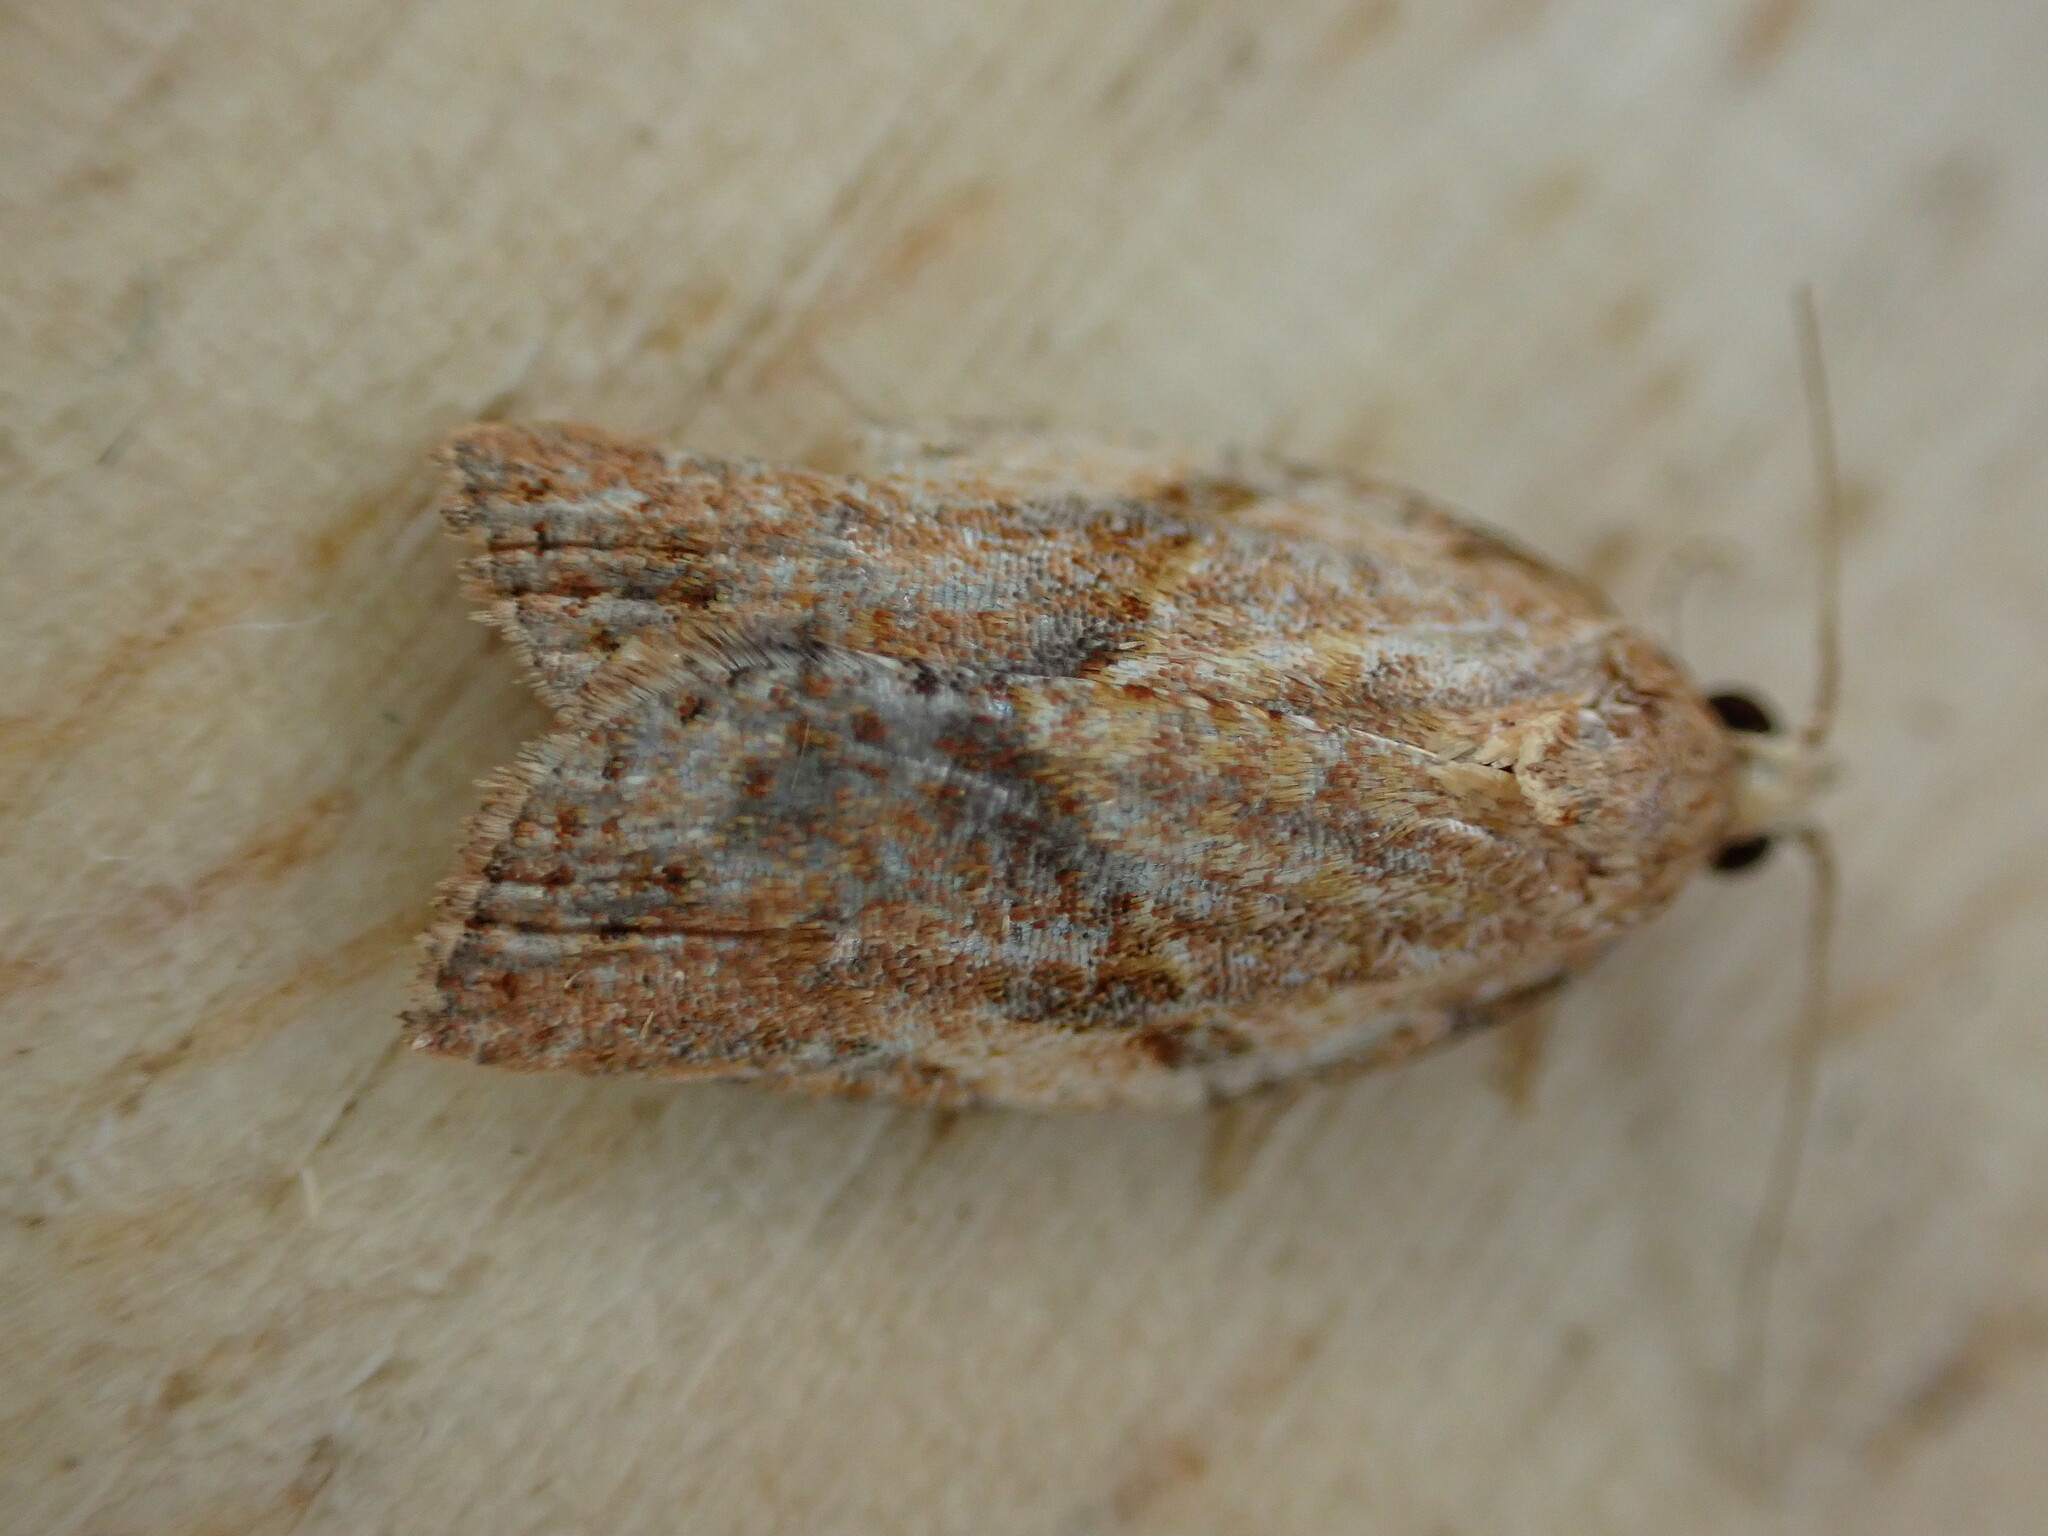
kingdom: Animalia
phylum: Arthropoda
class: Insecta
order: Lepidoptera
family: Tortricidae
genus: Epiphyas
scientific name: Epiphyas postvittana
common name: Light brown apple moth
